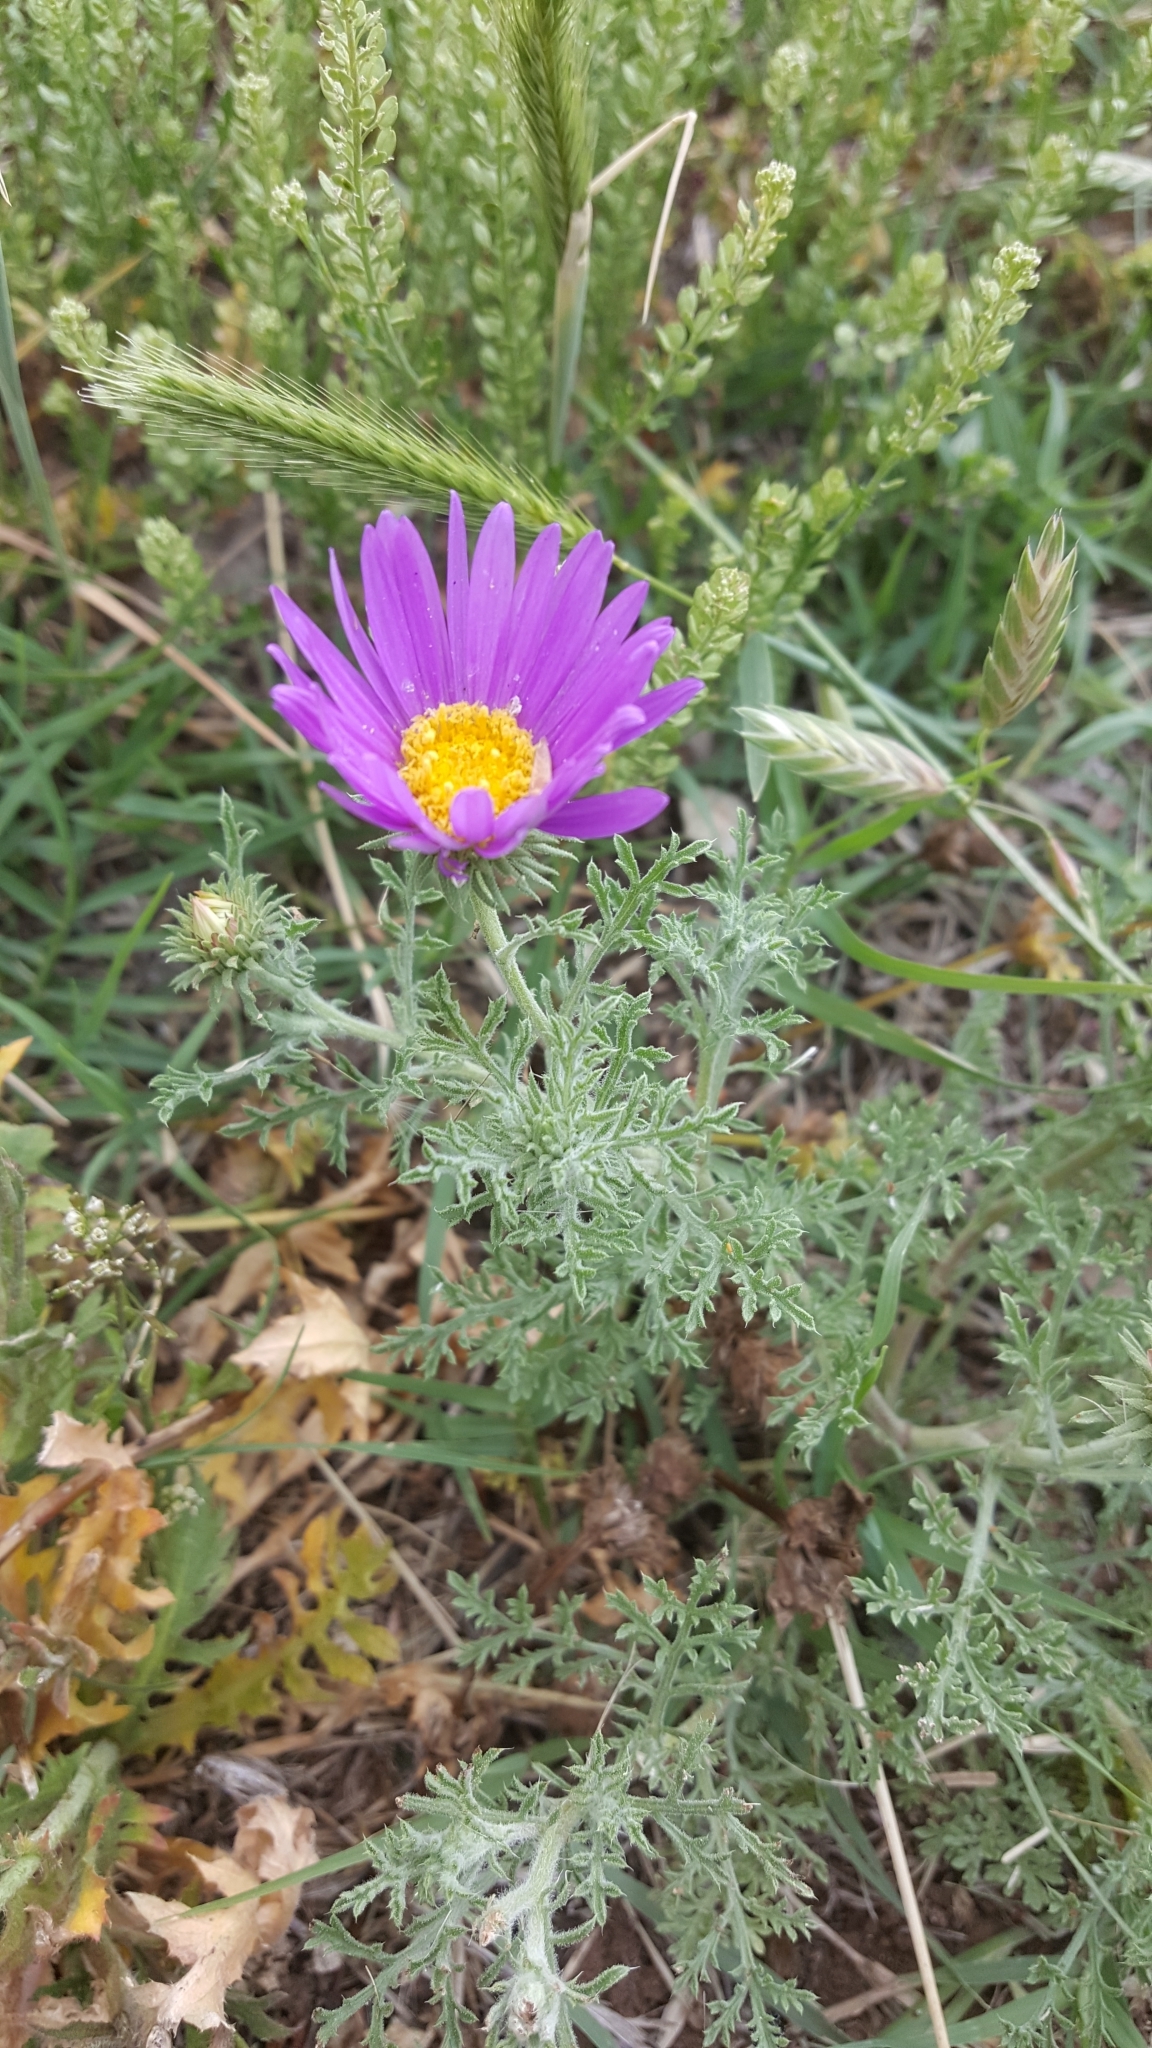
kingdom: Plantae
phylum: Tracheophyta
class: Magnoliopsida
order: Asterales
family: Asteraceae
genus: Machaeranthera
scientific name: Machaeranthera tanacetifolia
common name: Tansy-aster
